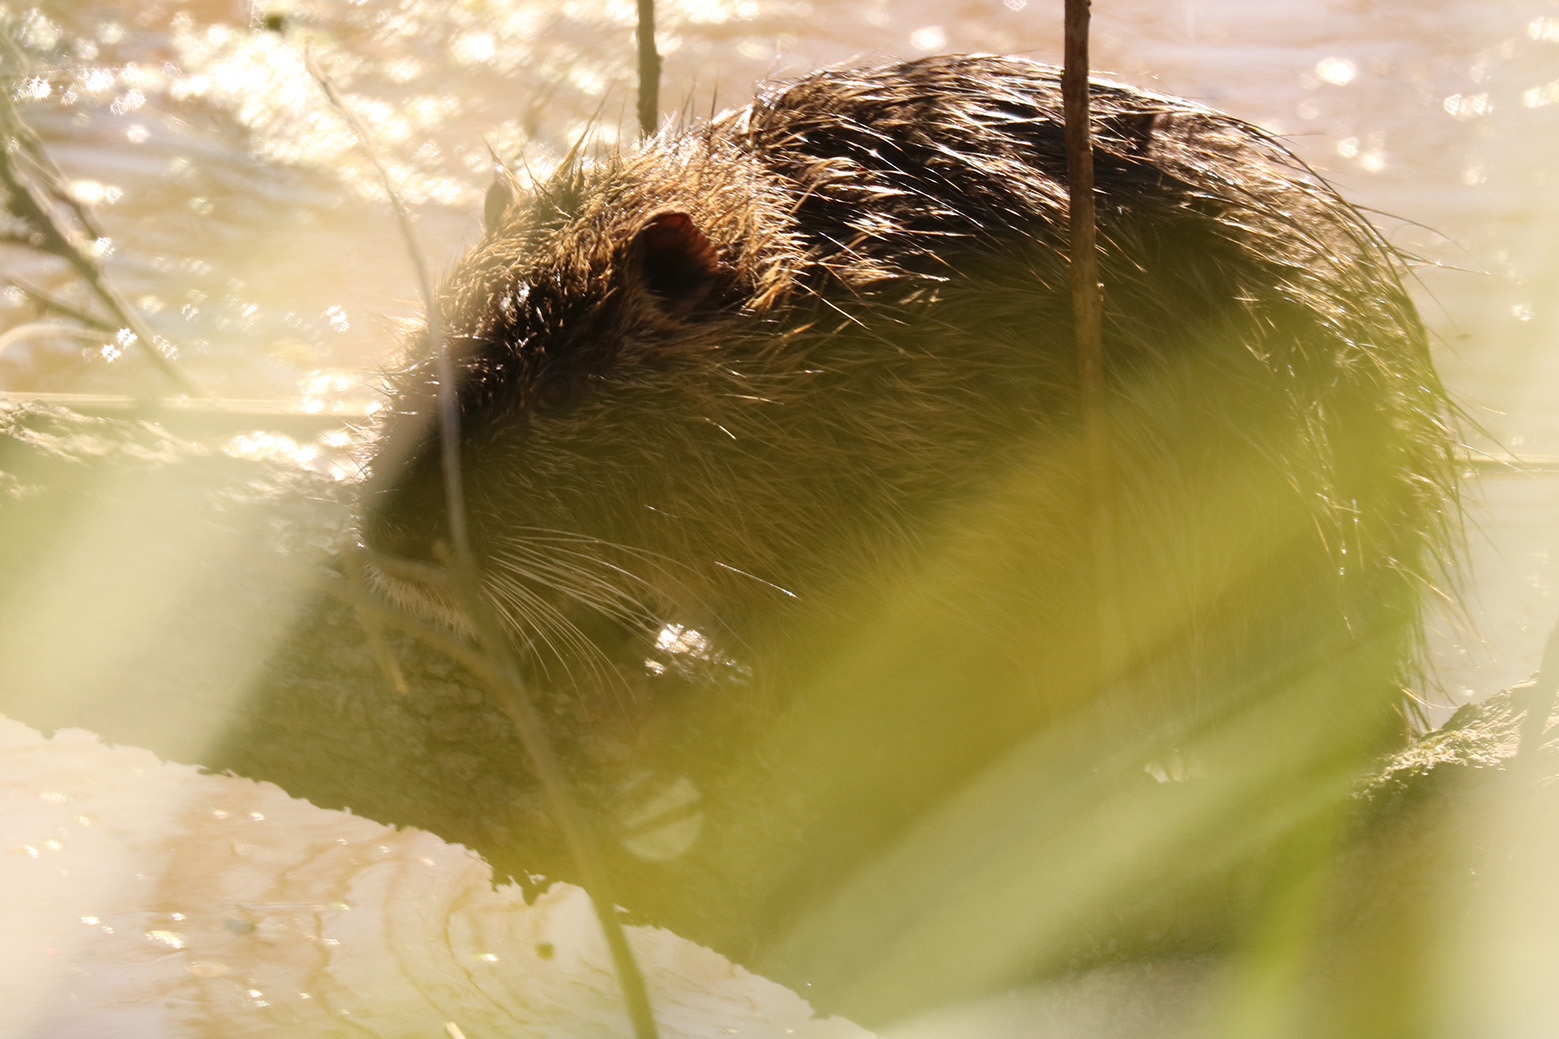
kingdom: Animalia
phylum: Chordata
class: Mammalia
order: Rodentia
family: Myocastoridae
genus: Myocastor
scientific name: Myocastor coypus
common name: Coypu
